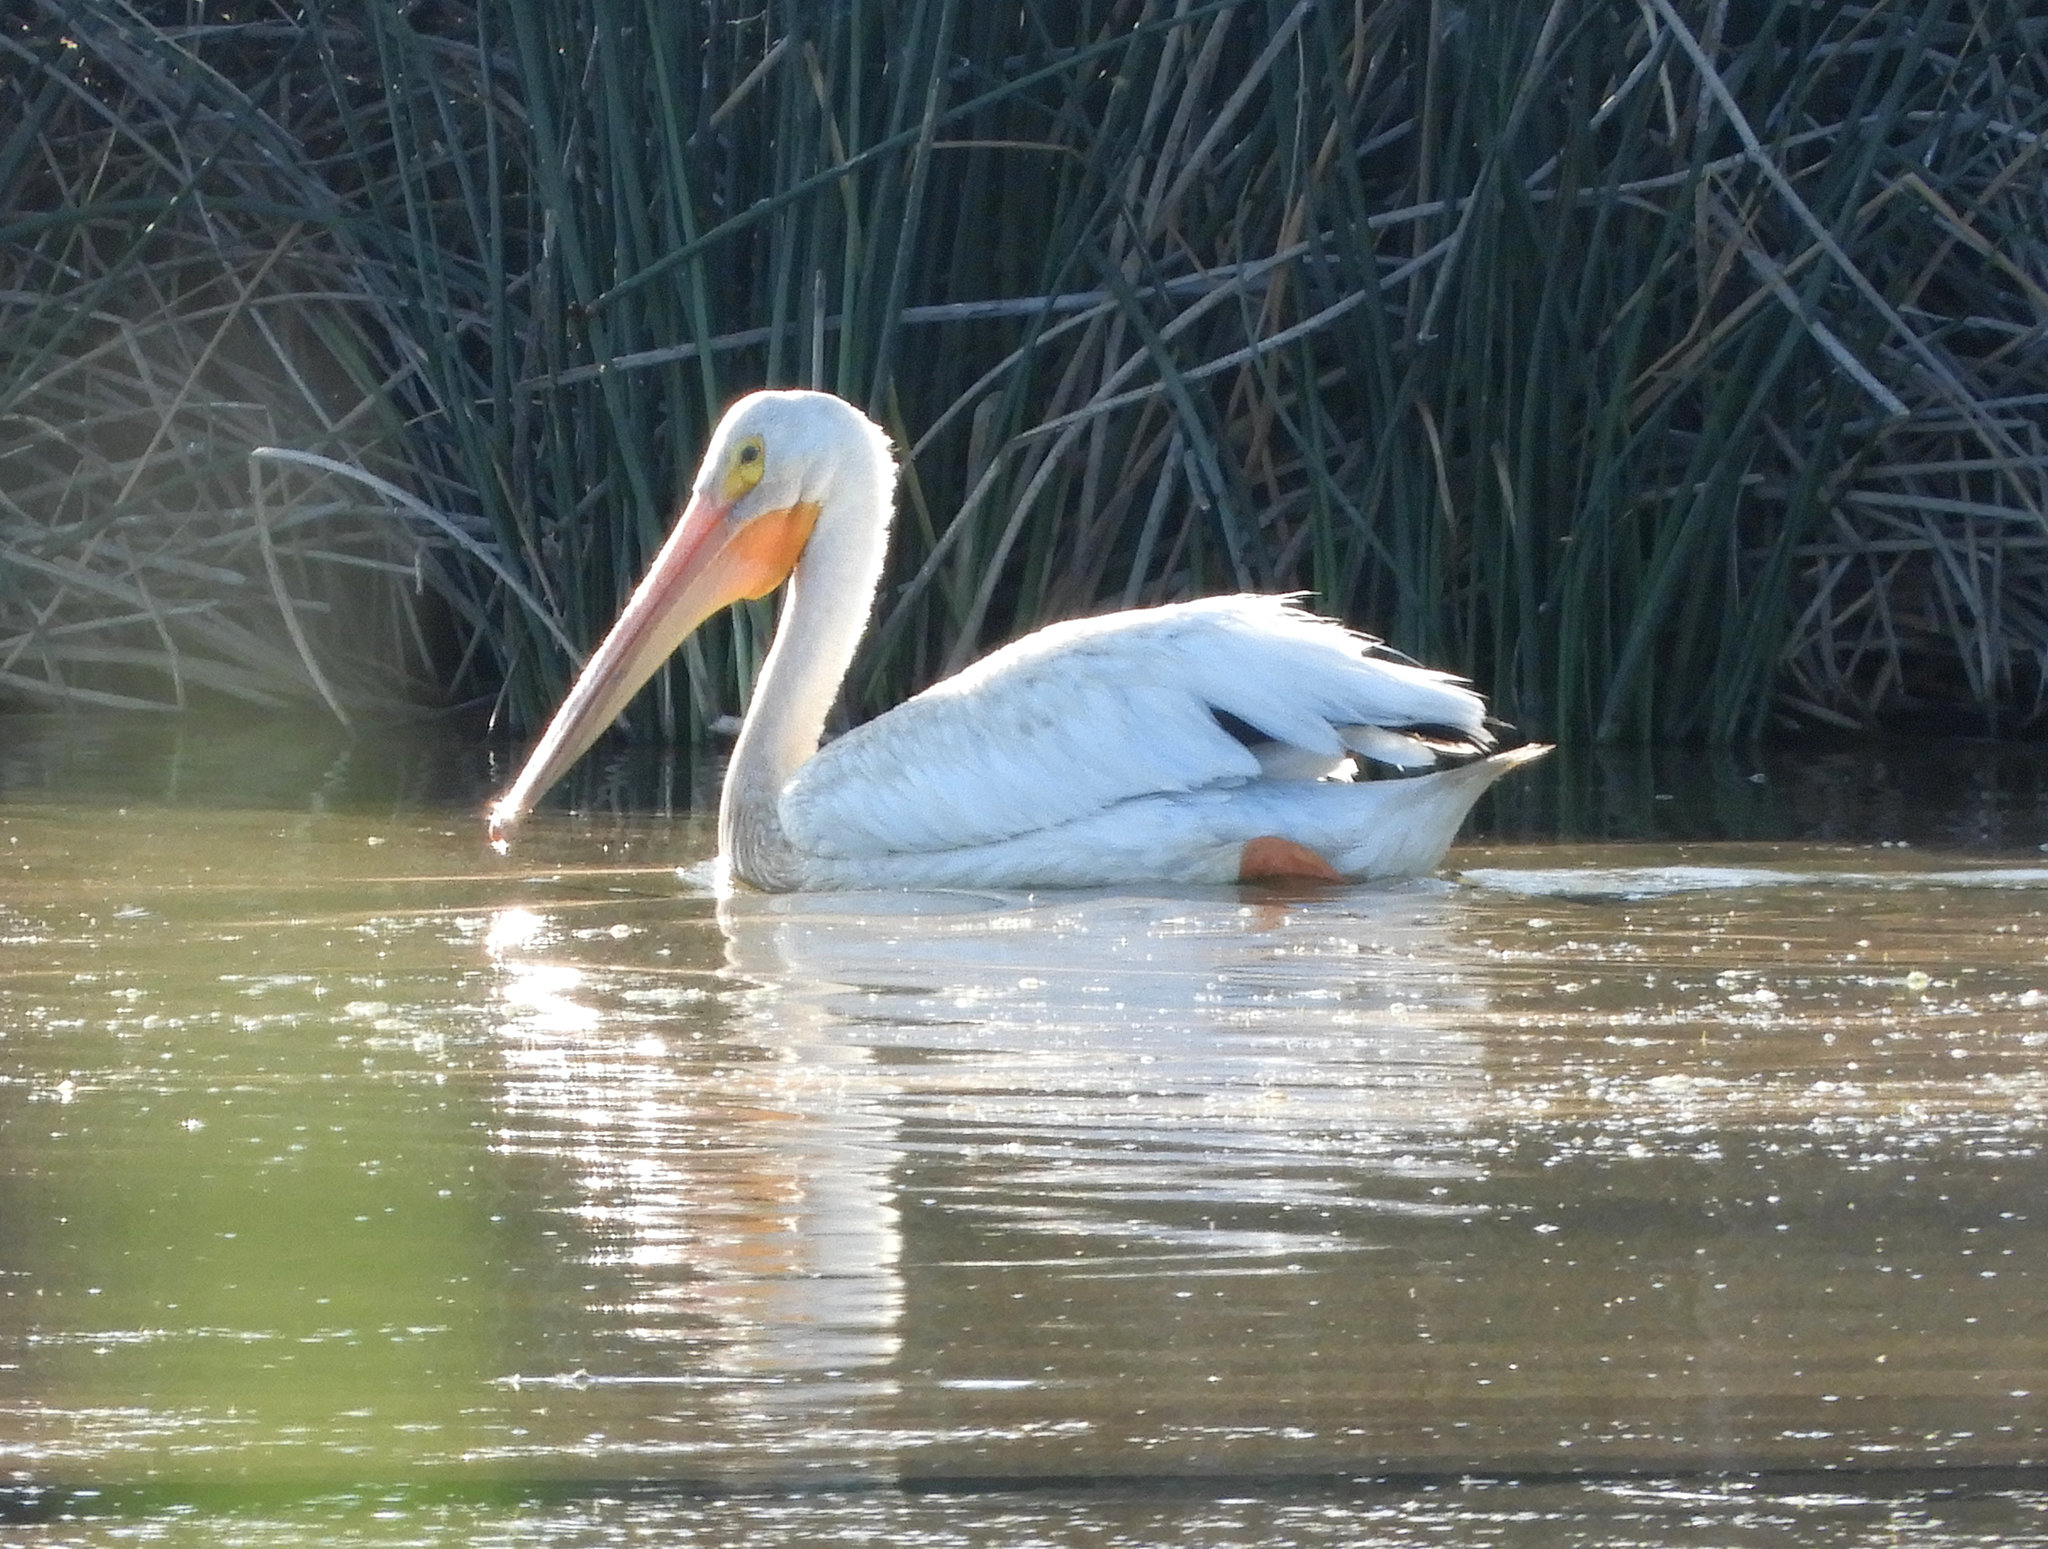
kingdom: Animalia
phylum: Chordata
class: Aves
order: Pelecaniformes
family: Pelecanidae
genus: Pelecanus
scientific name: Pelecanus erythrorhynchos
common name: American white pelican
